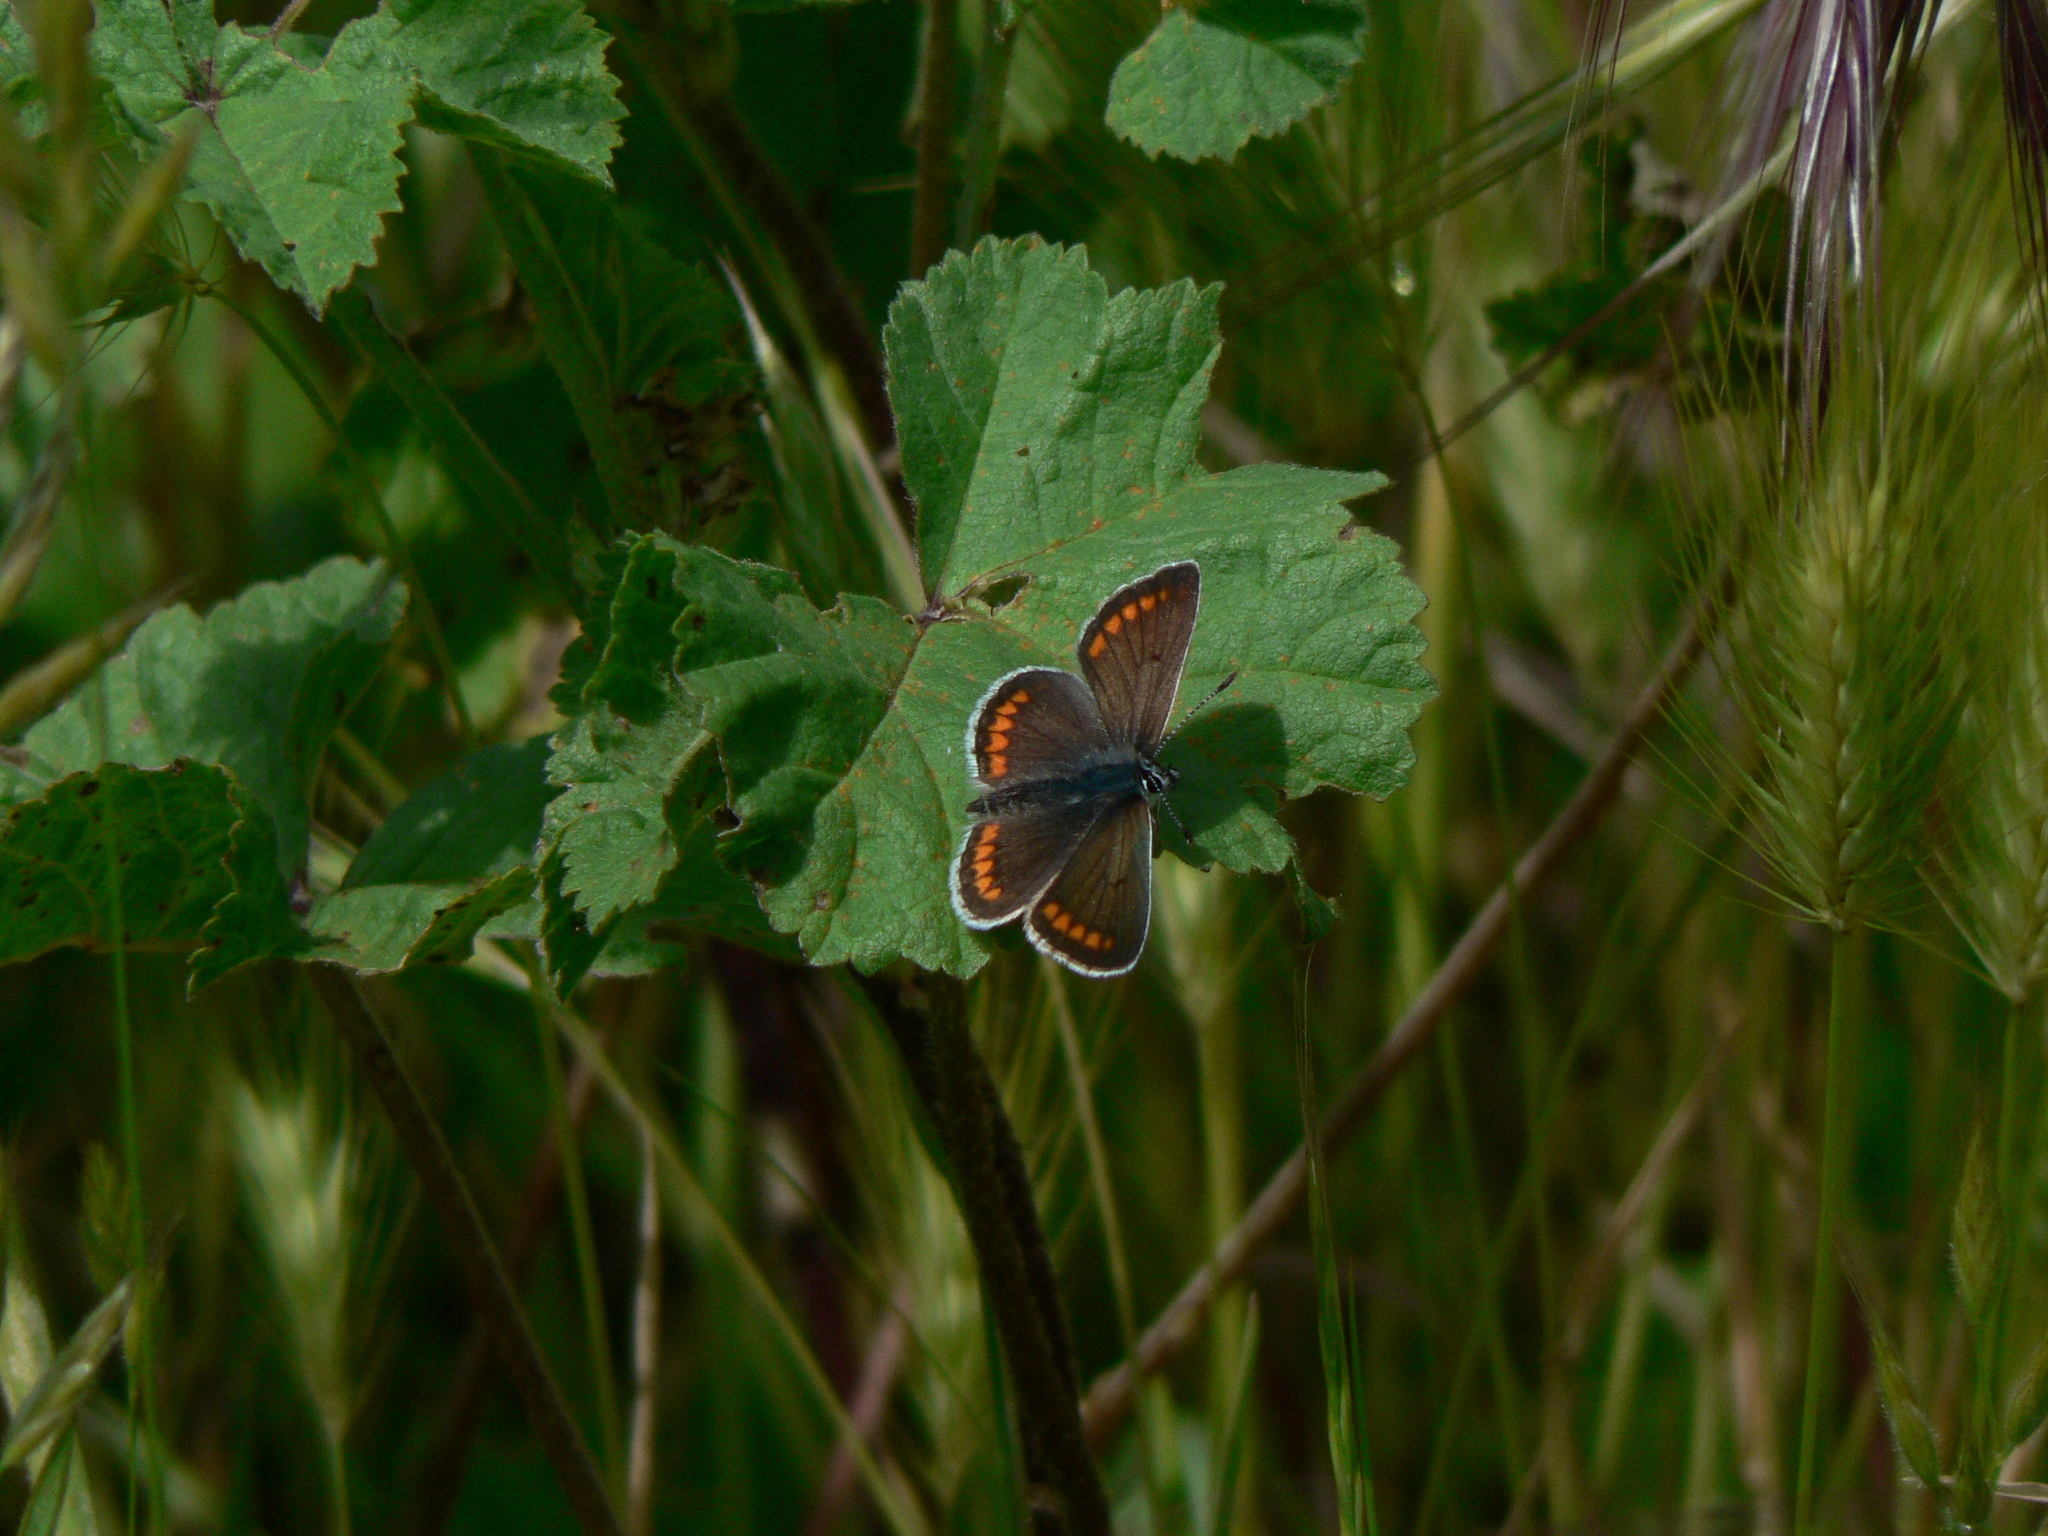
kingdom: Animalia
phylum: Arthropoda
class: Insecta
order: Lepidoptera
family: Lycaenidae
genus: Aricia
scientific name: Aricia agestis
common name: Brown argus
